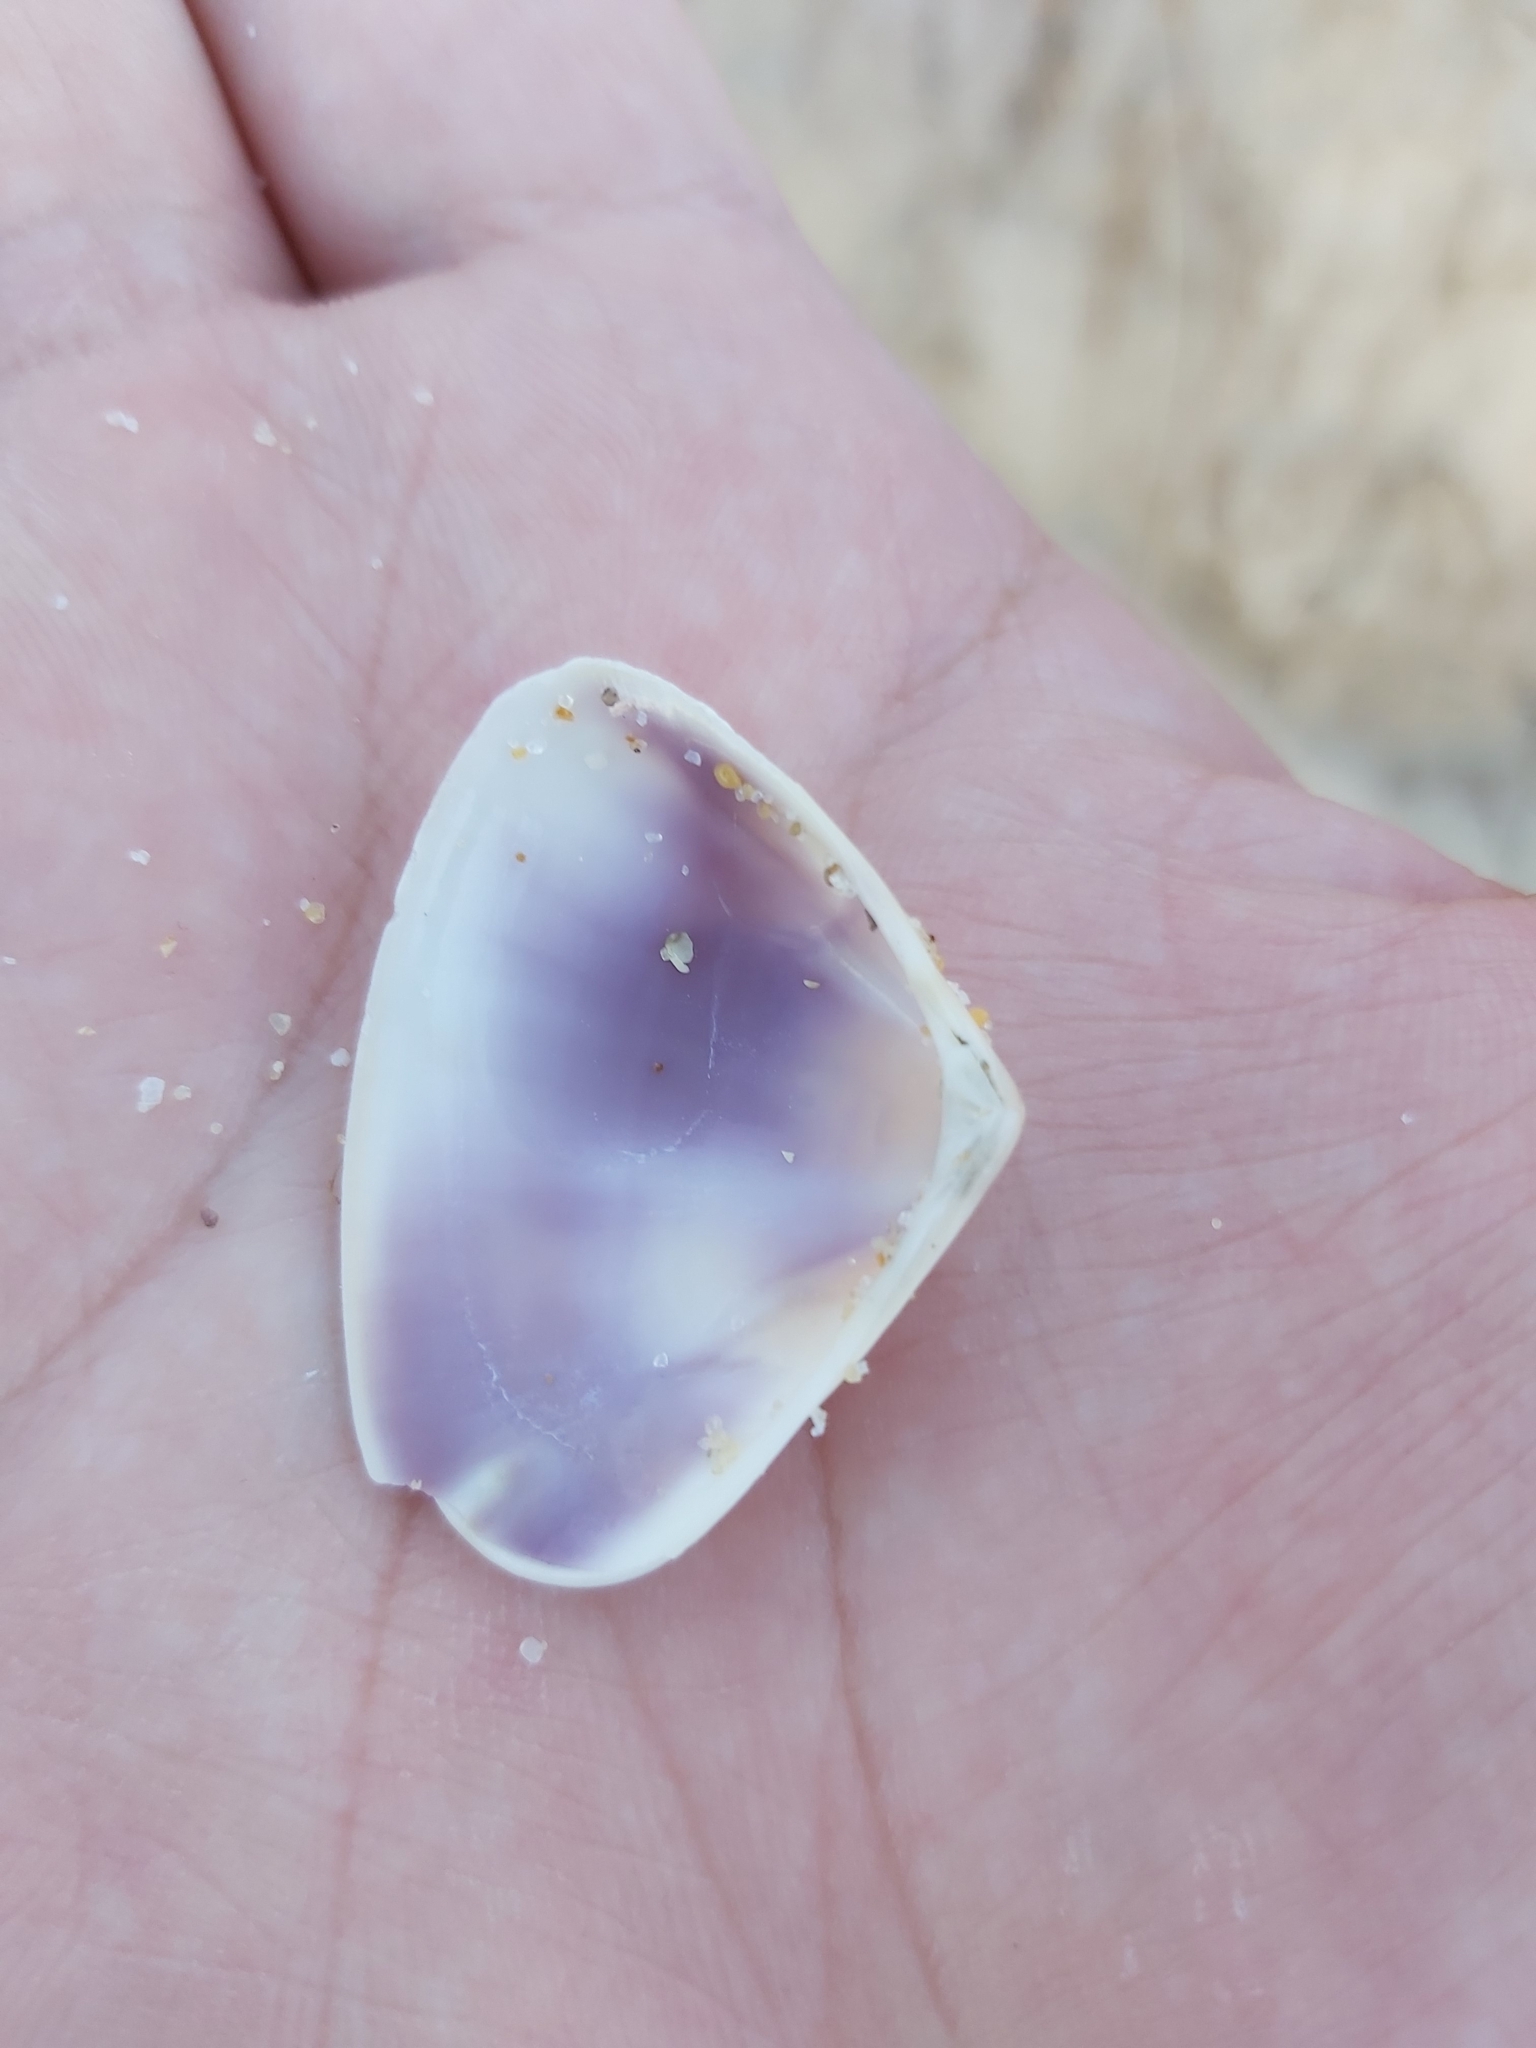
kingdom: Animalia
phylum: Mollusca
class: Bivalvia
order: Cardiida
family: Donacidae
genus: Latona
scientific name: Latona deltoides
